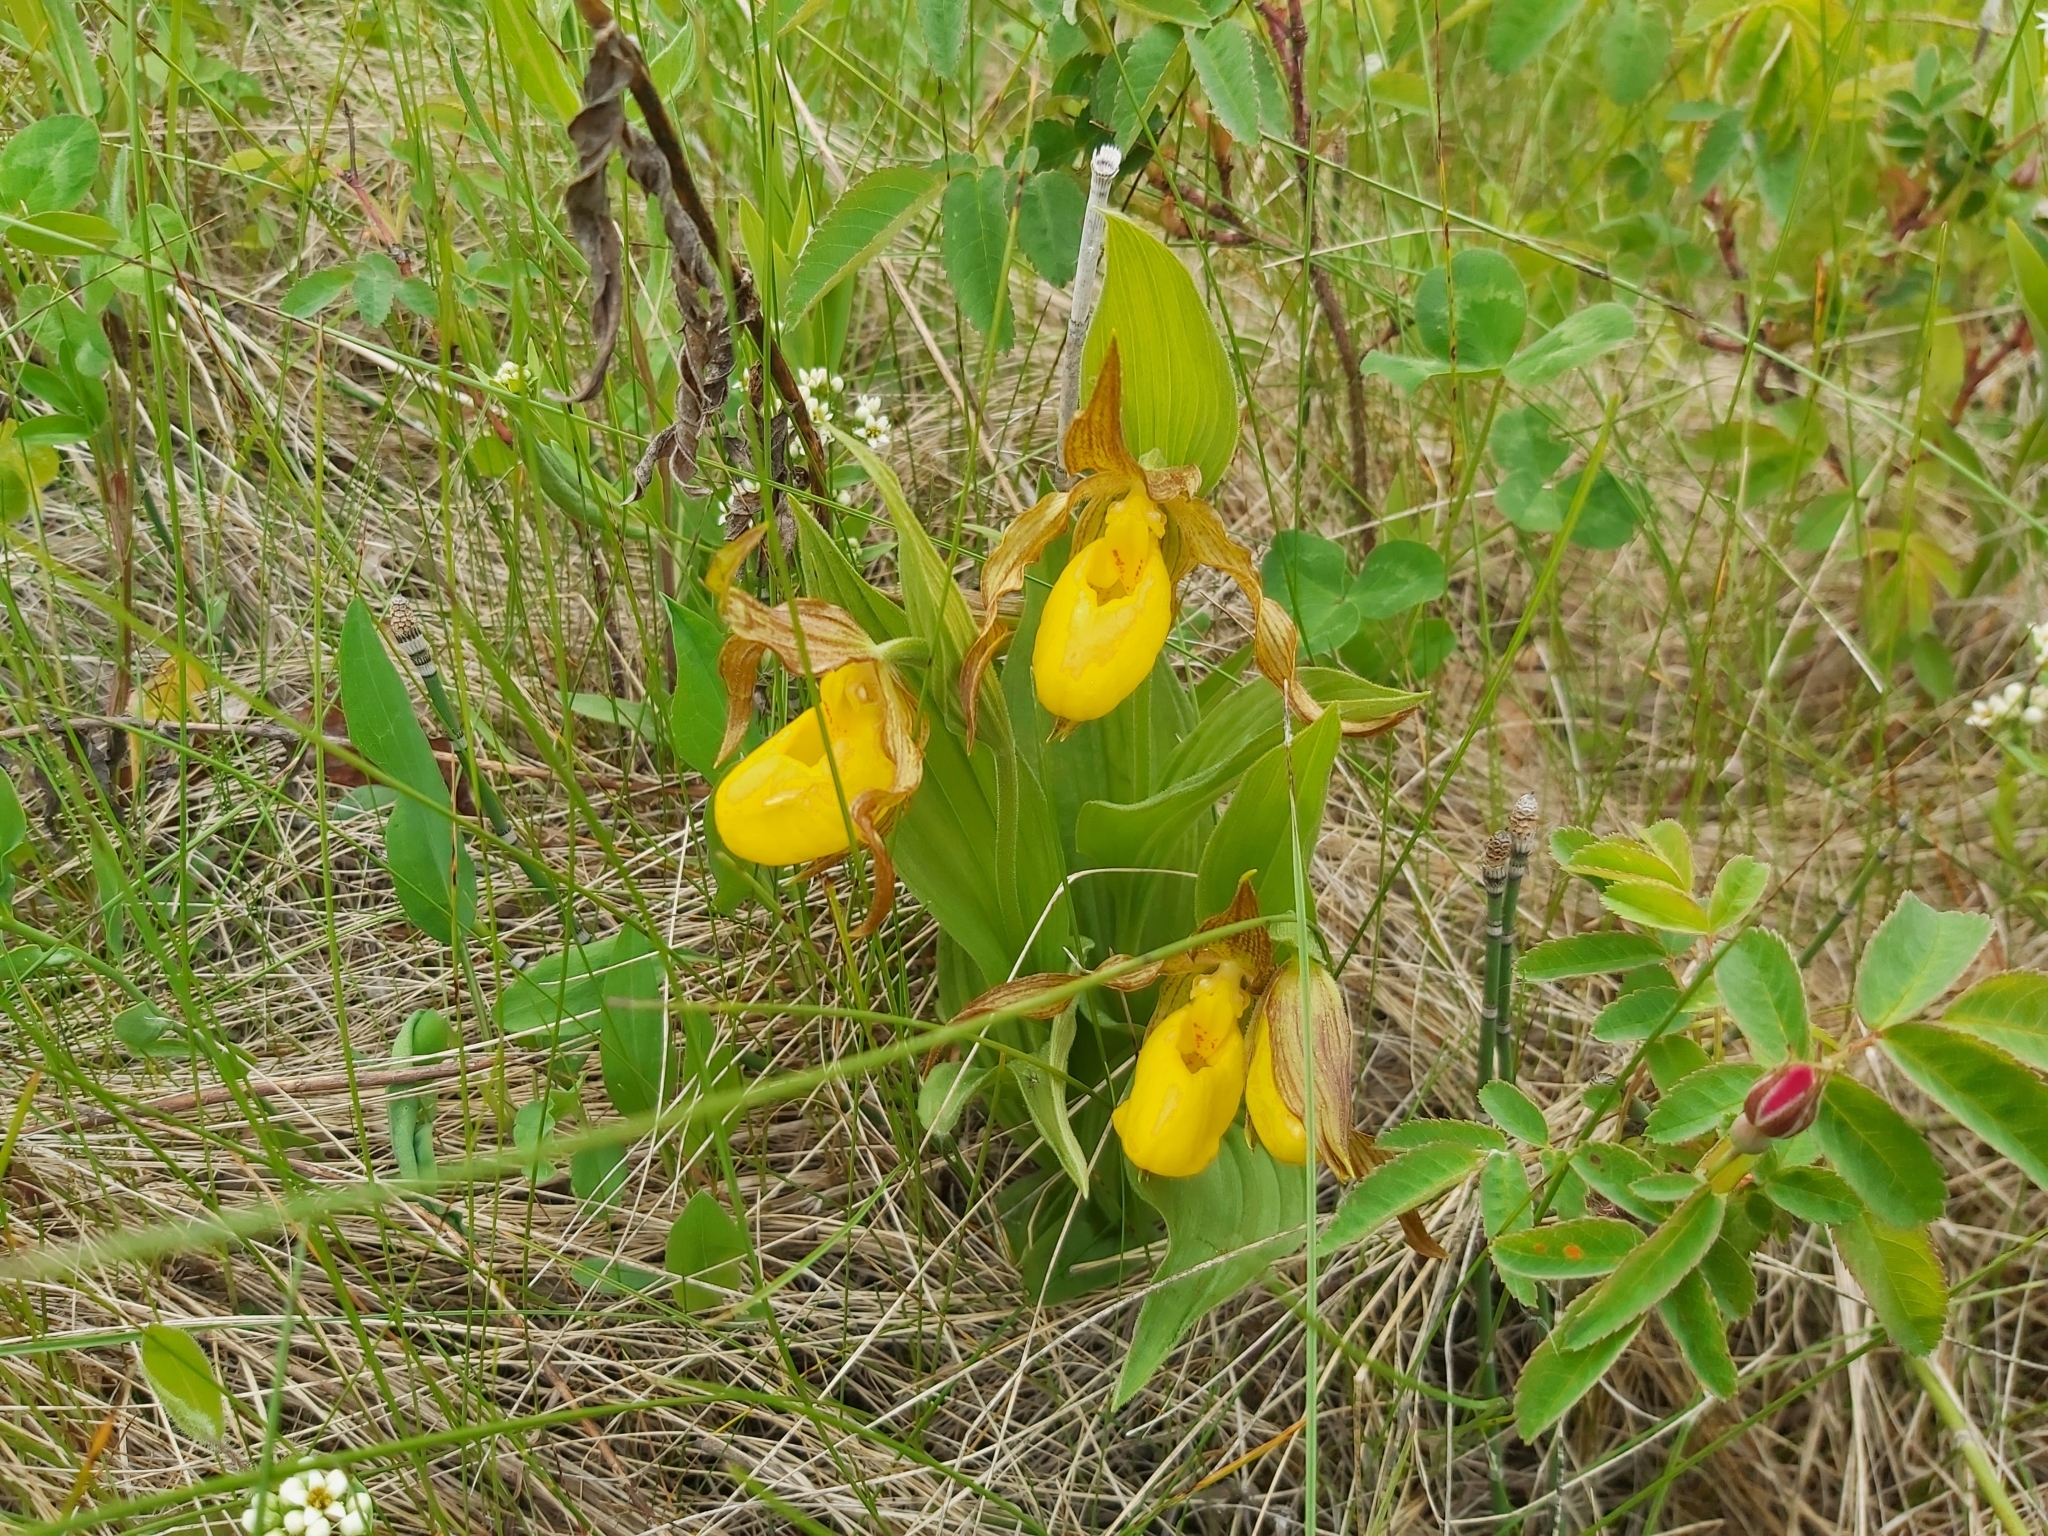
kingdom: Plantae
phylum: Tracheophyta
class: Liliopsida
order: Asparagales
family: Orchidaceae
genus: Cypripedium
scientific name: Cypripedium parviflorum
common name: American yellow lady's-slipper
